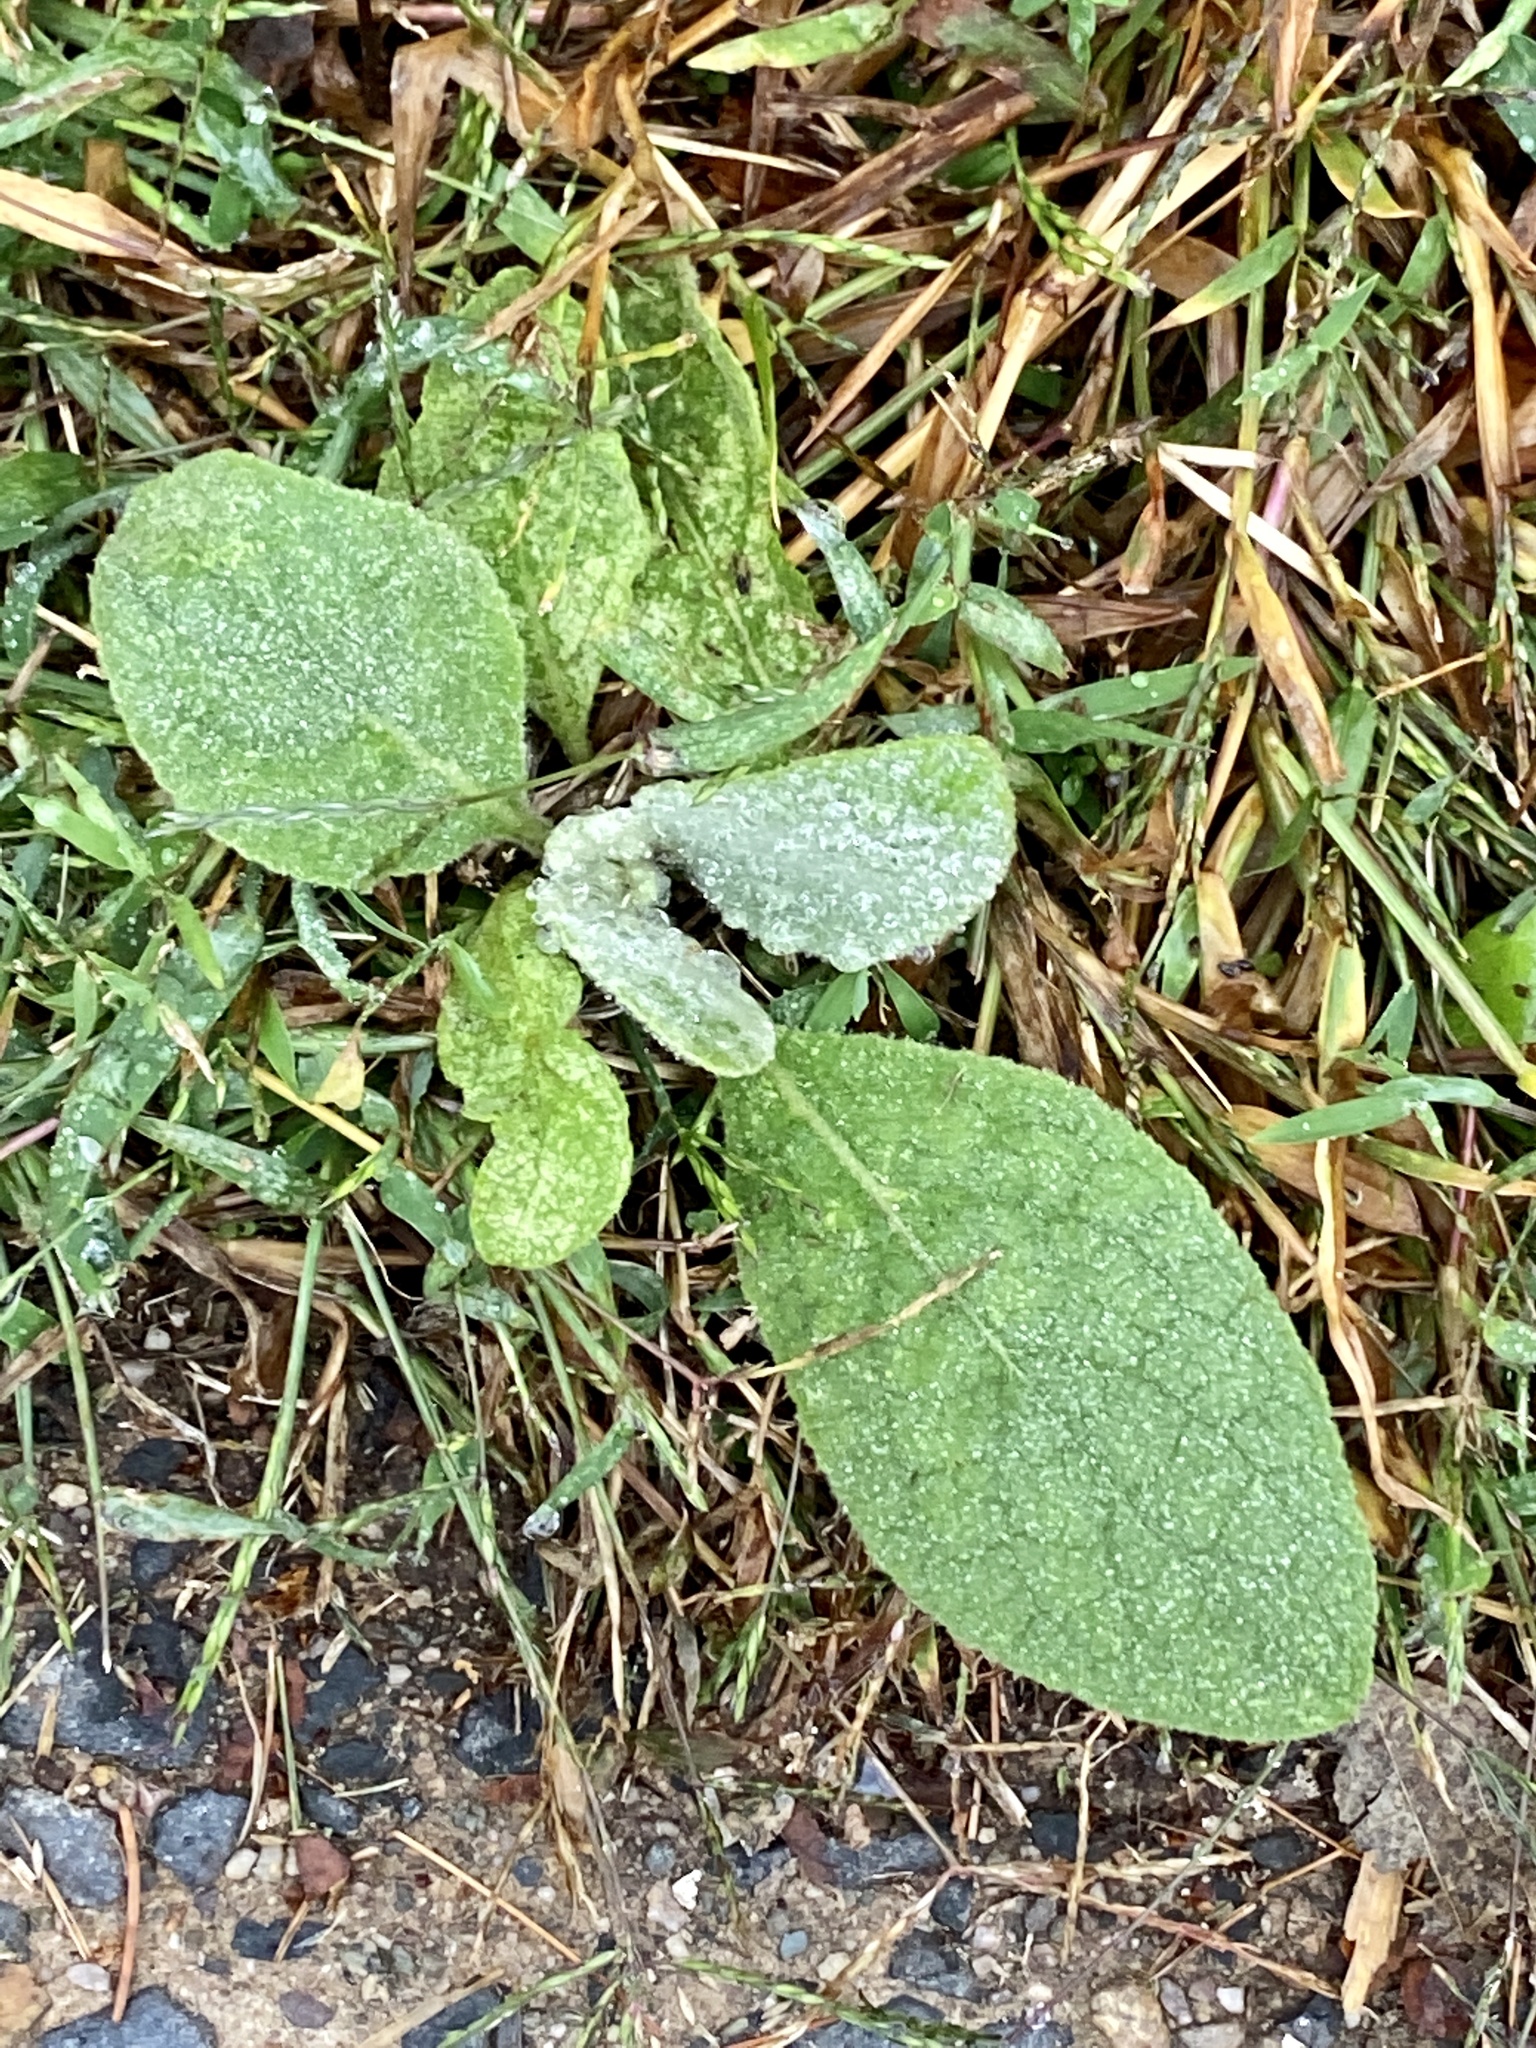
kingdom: Plantae
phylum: Tracheophyta
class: Magnoliopsida
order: Lamiales
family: Scrophulariaceae
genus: Verbascum
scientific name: Verbascum thapsus
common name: Common mullein
